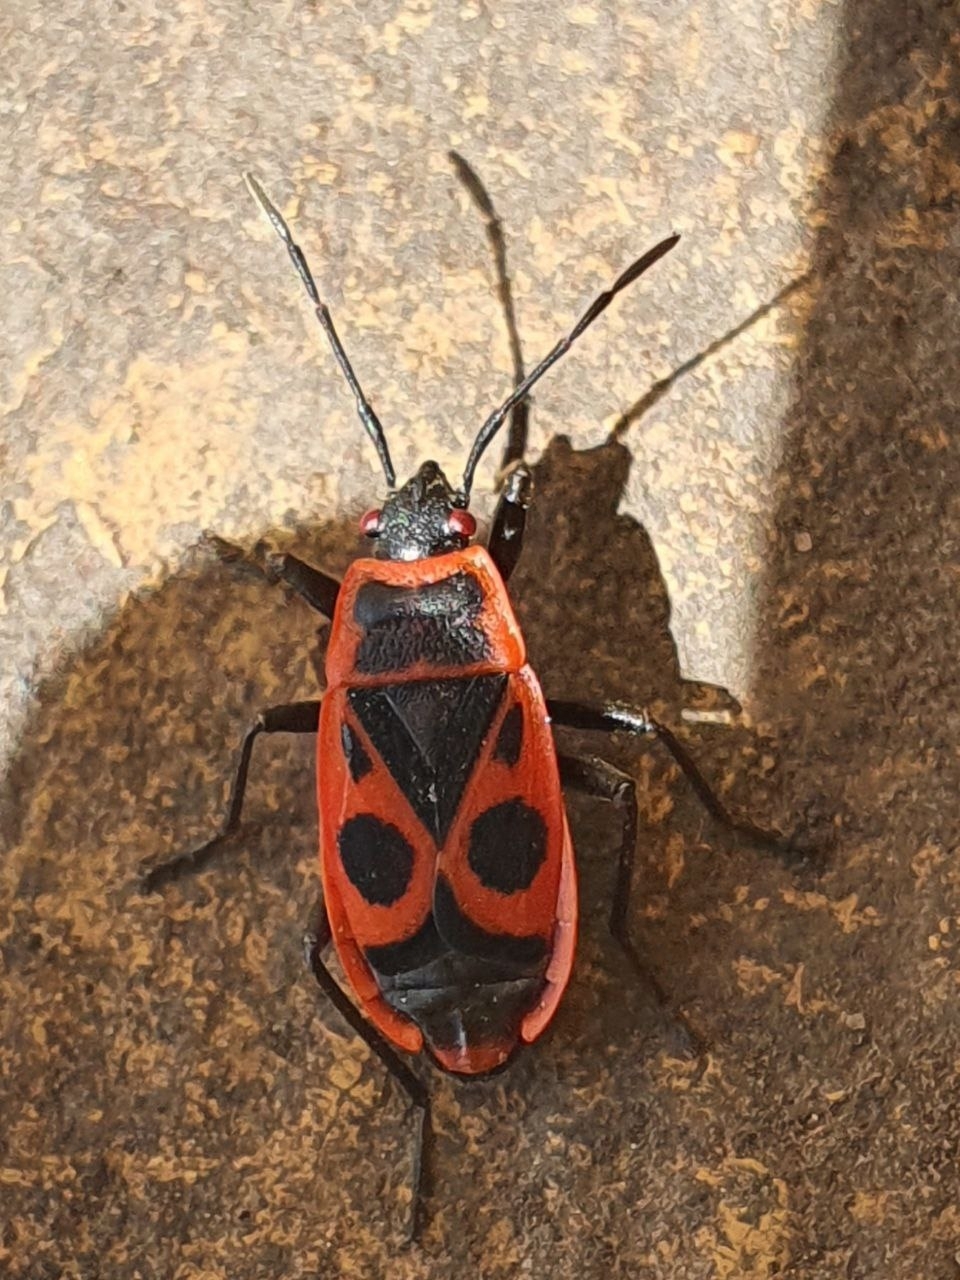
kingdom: Animalia
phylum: Arthropoda
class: Insecta
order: Hemiptera
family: Pyrrhocoridae
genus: Pyrrhocoris
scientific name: Pyrrhocoris apterus
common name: Firebug
